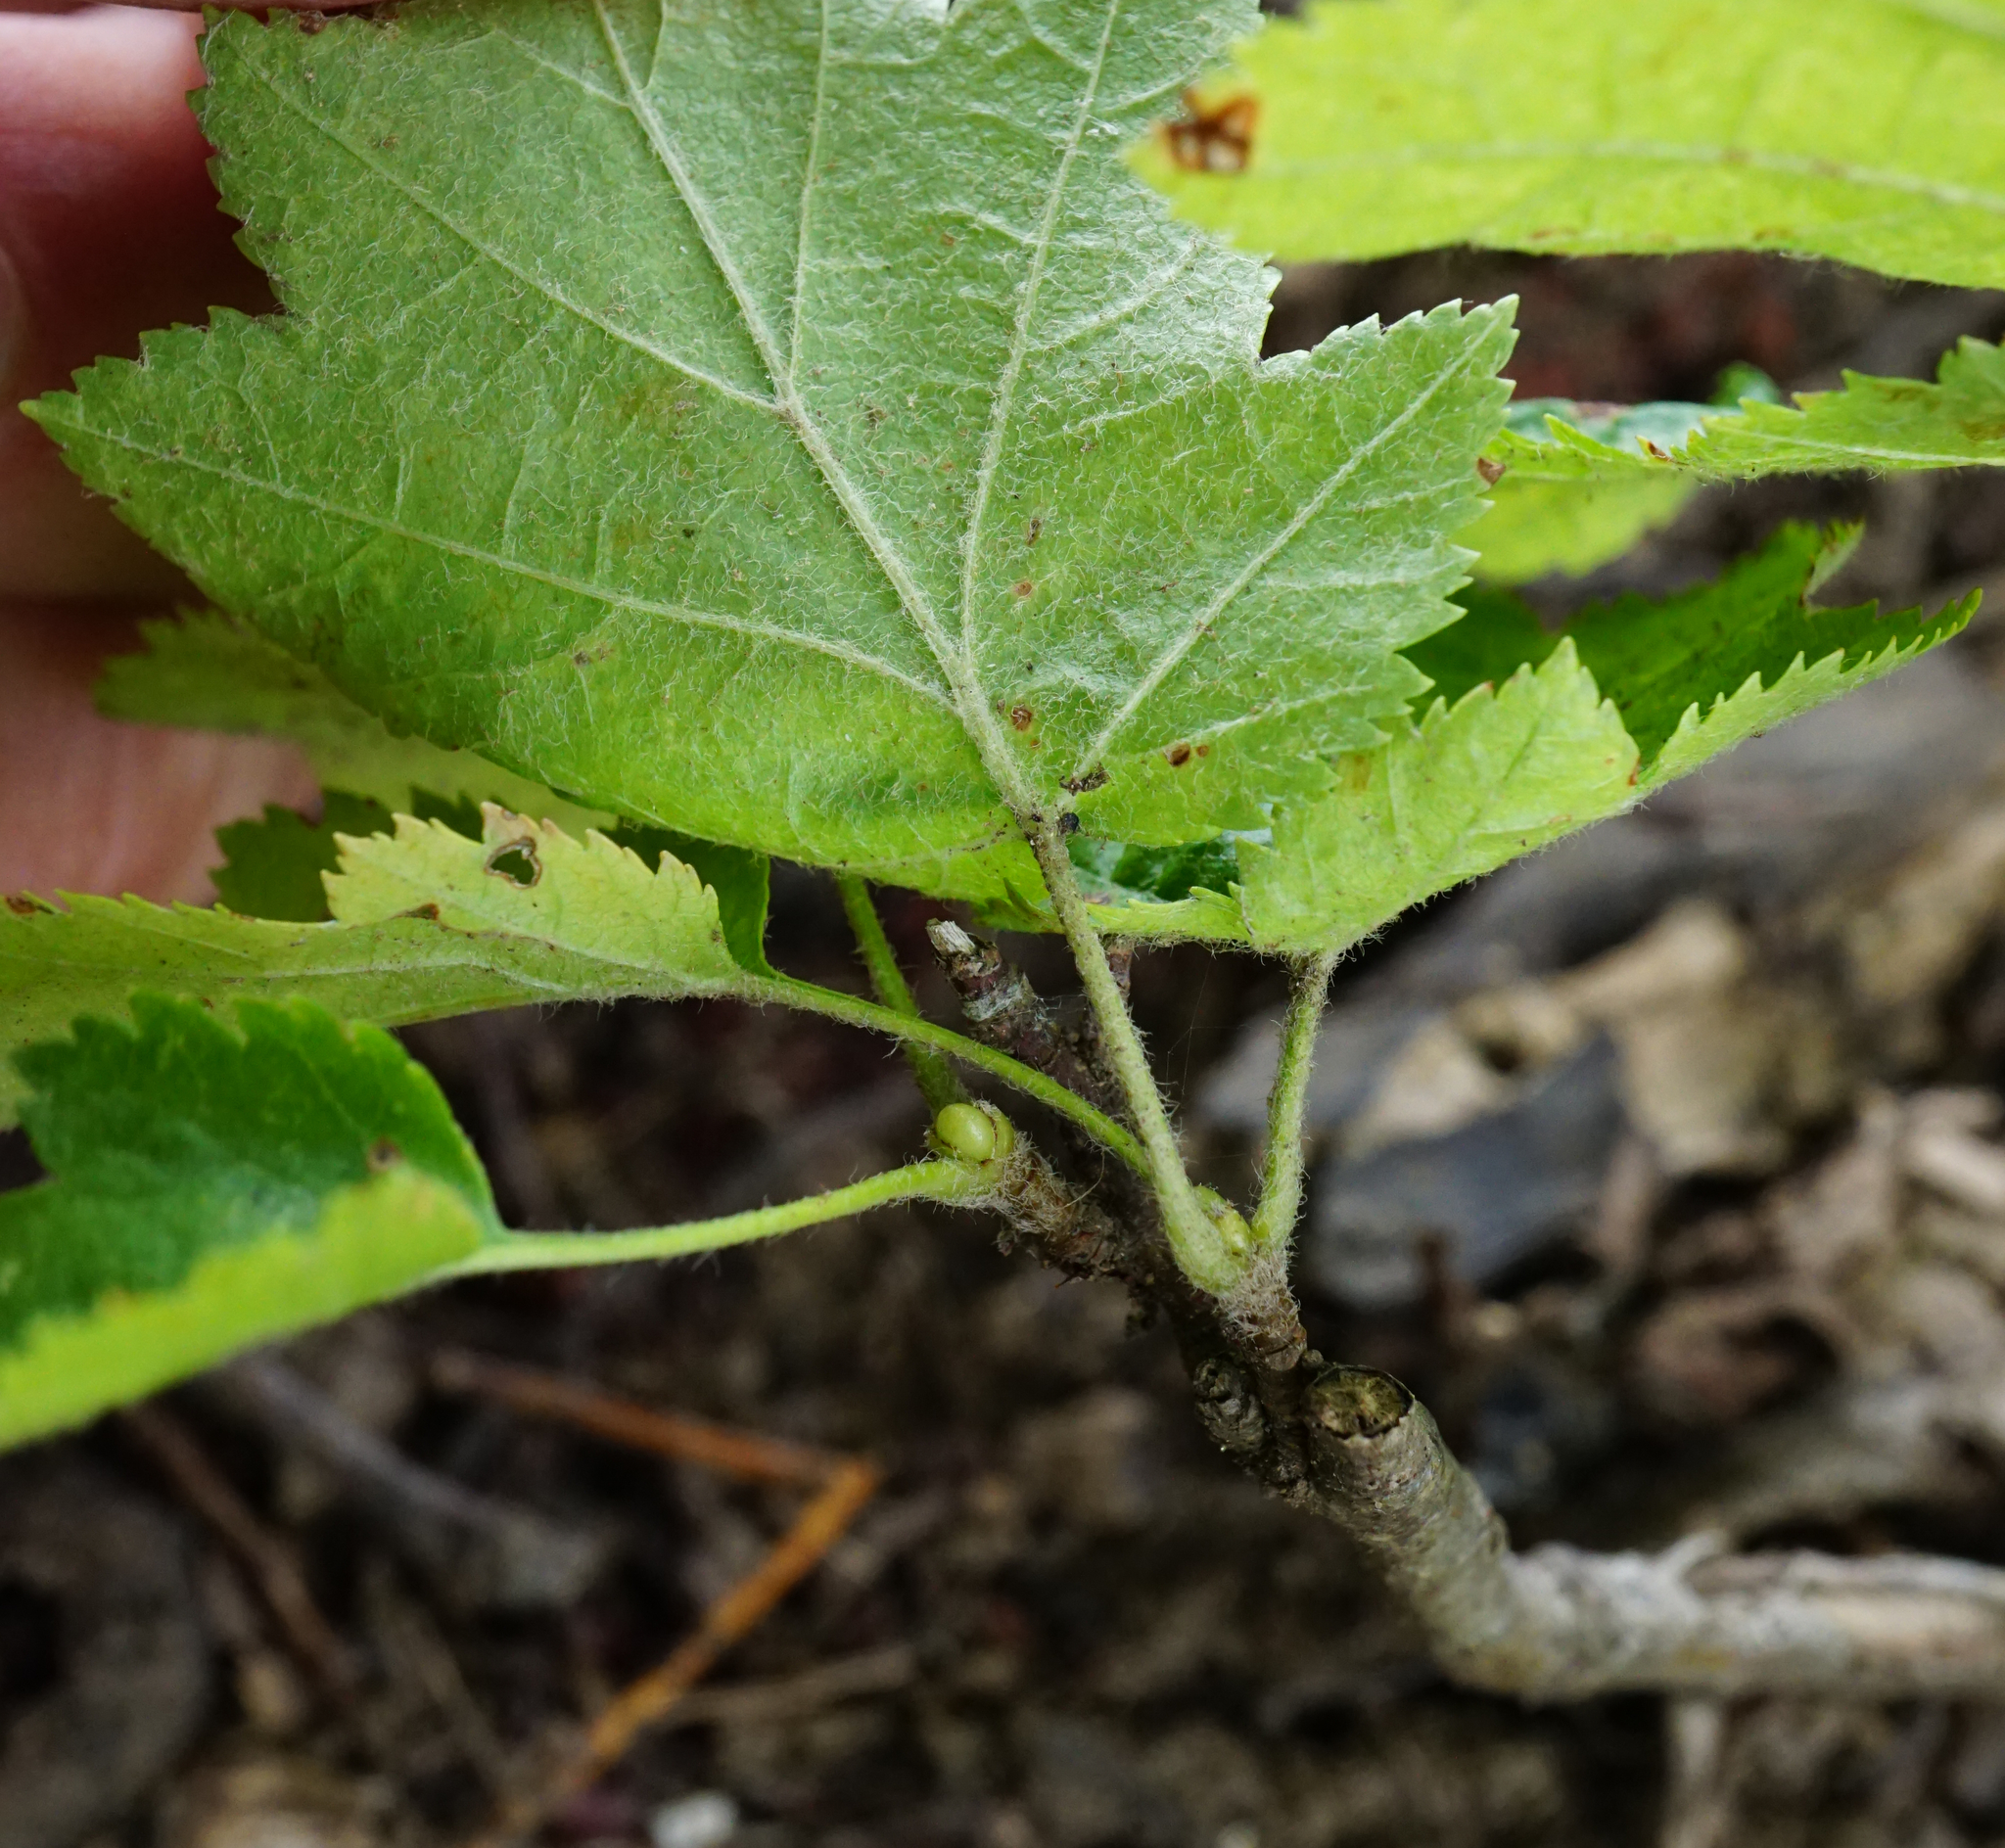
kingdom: Plantae
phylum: Tracheophyta
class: Magnoliopsida
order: Rosales
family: Rosaceae
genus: Torminalis
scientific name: Torminalis glaberrima
